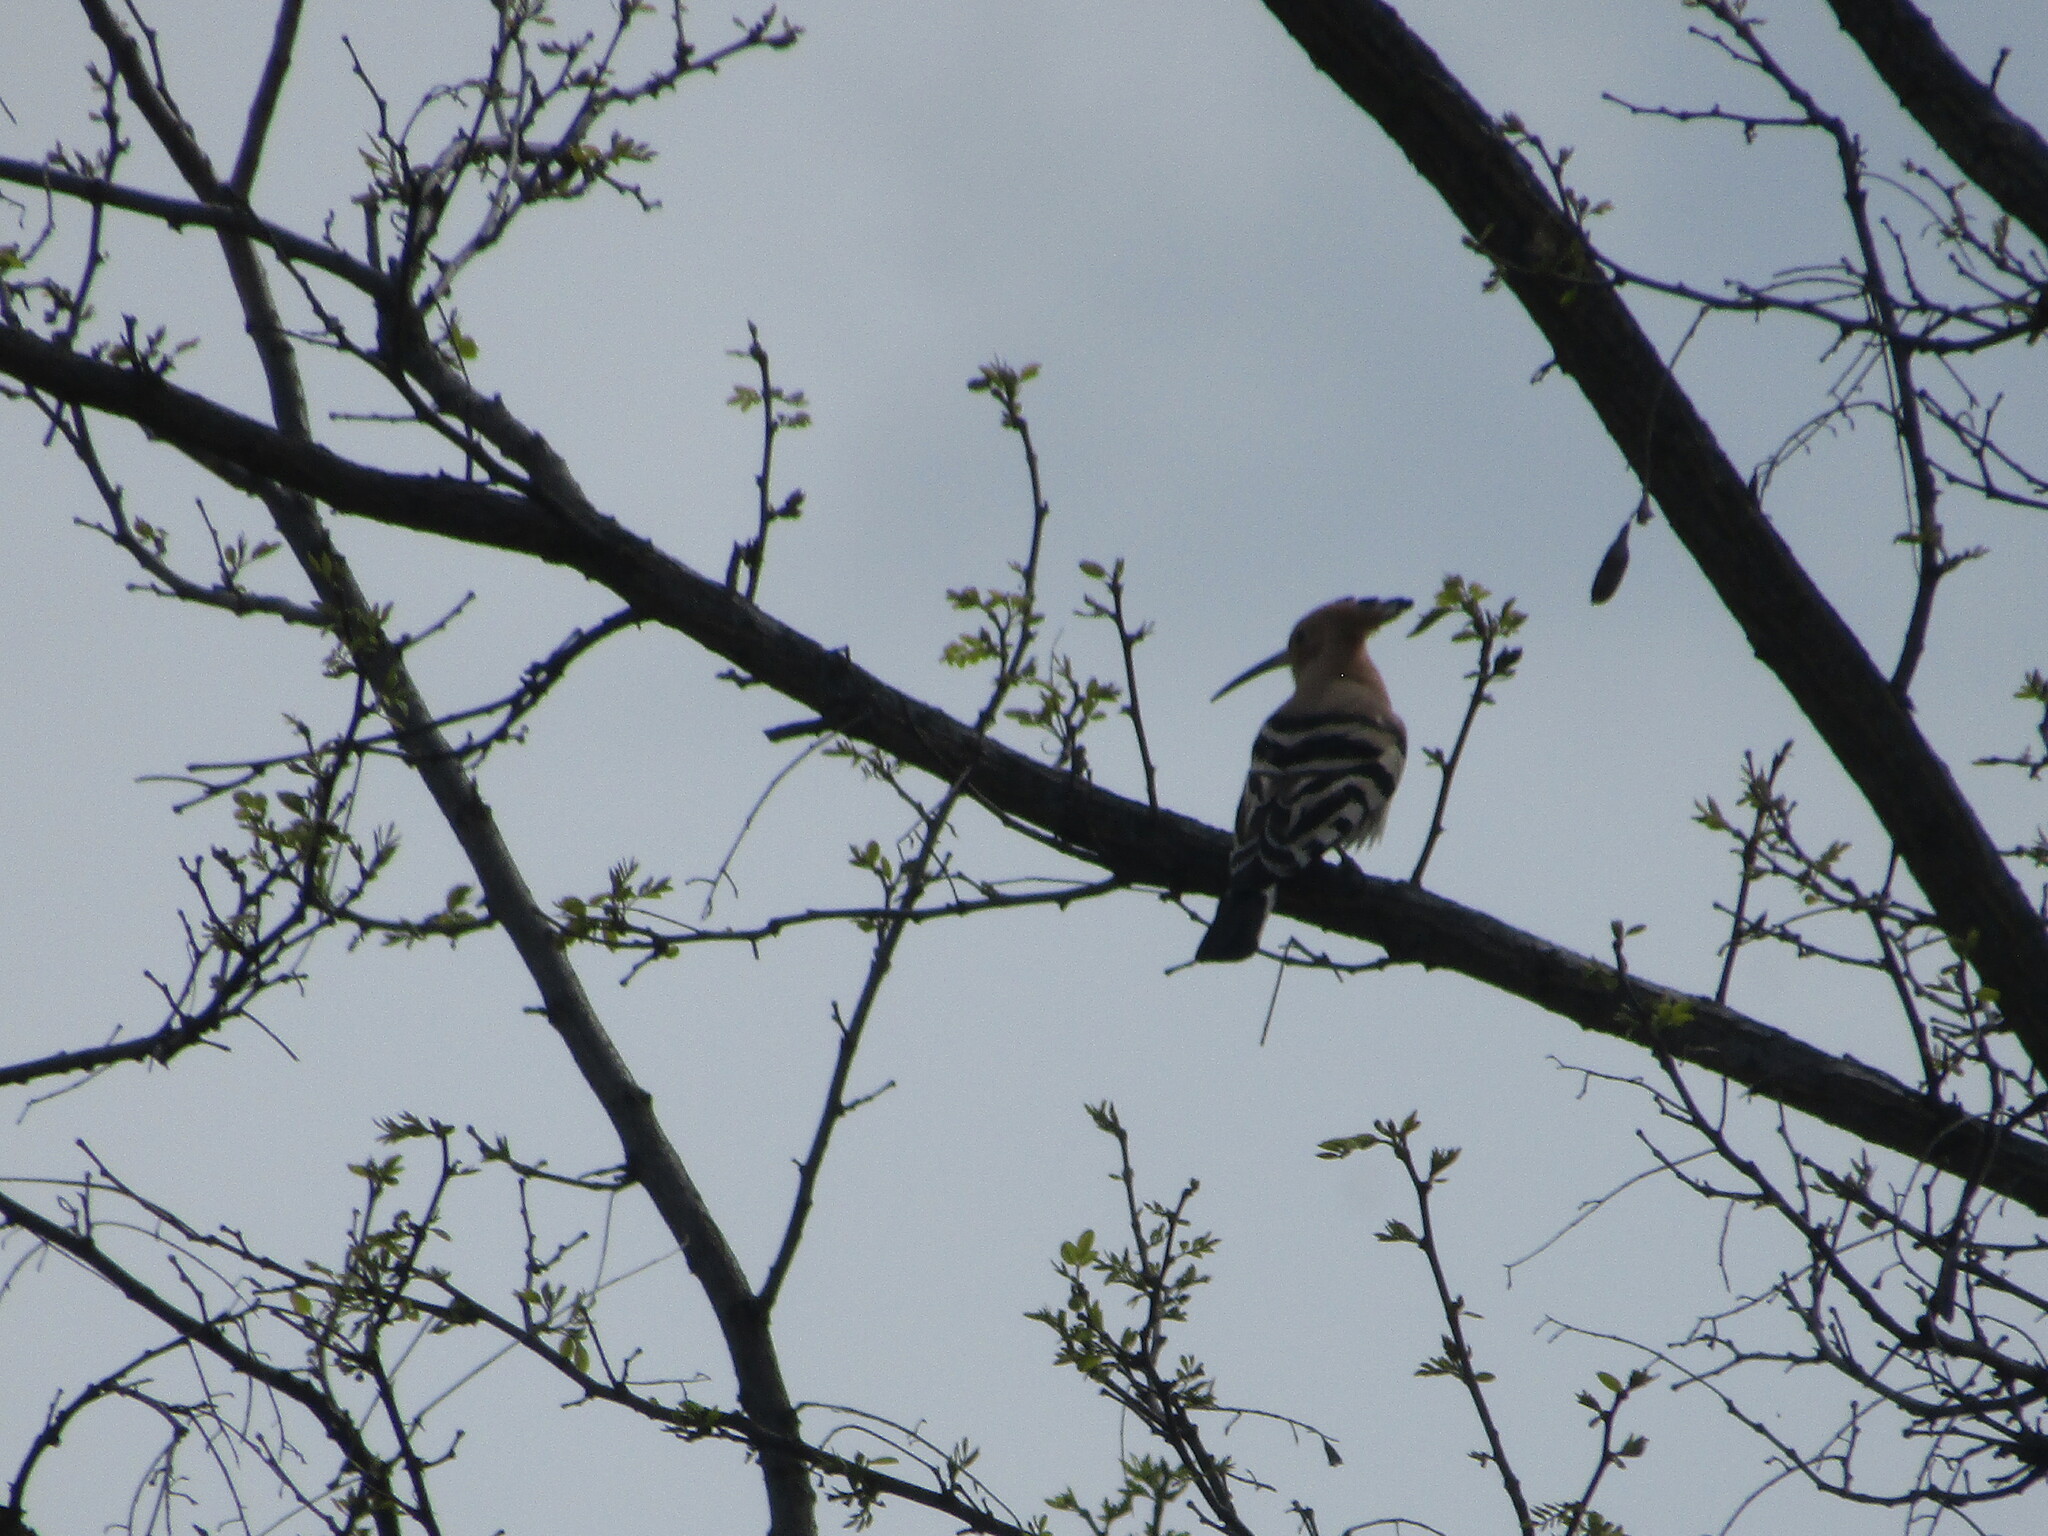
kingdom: Animalia
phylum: Chordata
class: Aves
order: Bucerotiformes
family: Upupidae
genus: Upupa
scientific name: Upupa epops
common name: Eurasian hoopoe
